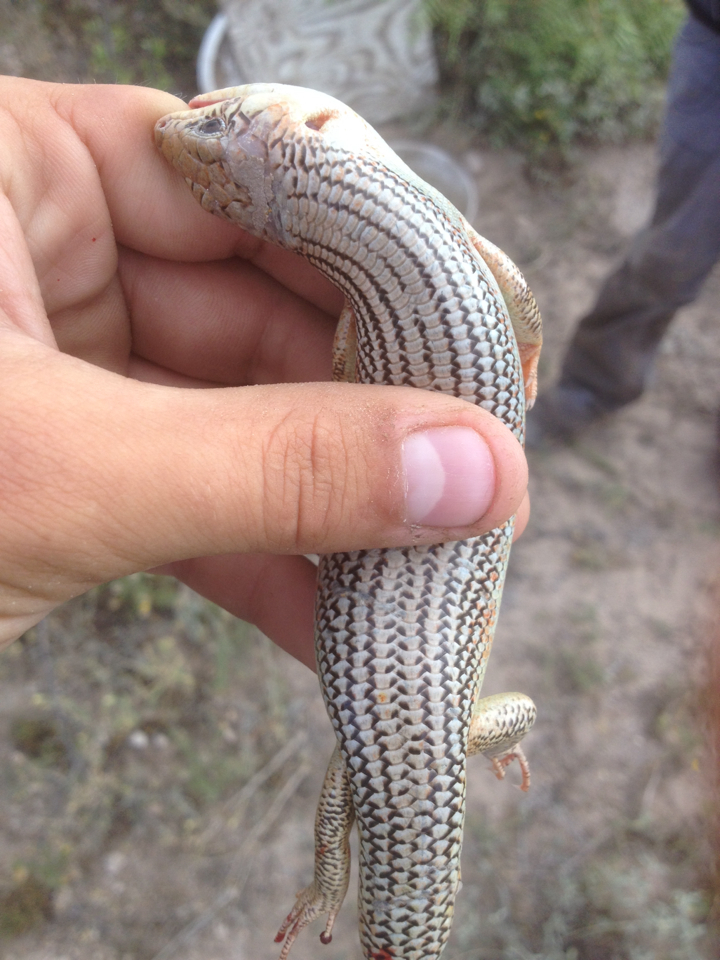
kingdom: Animalia
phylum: Chordata
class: Squamata
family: Scincidae
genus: Plestiodon
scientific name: Plestiodon obsoletus
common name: Great plains skink
